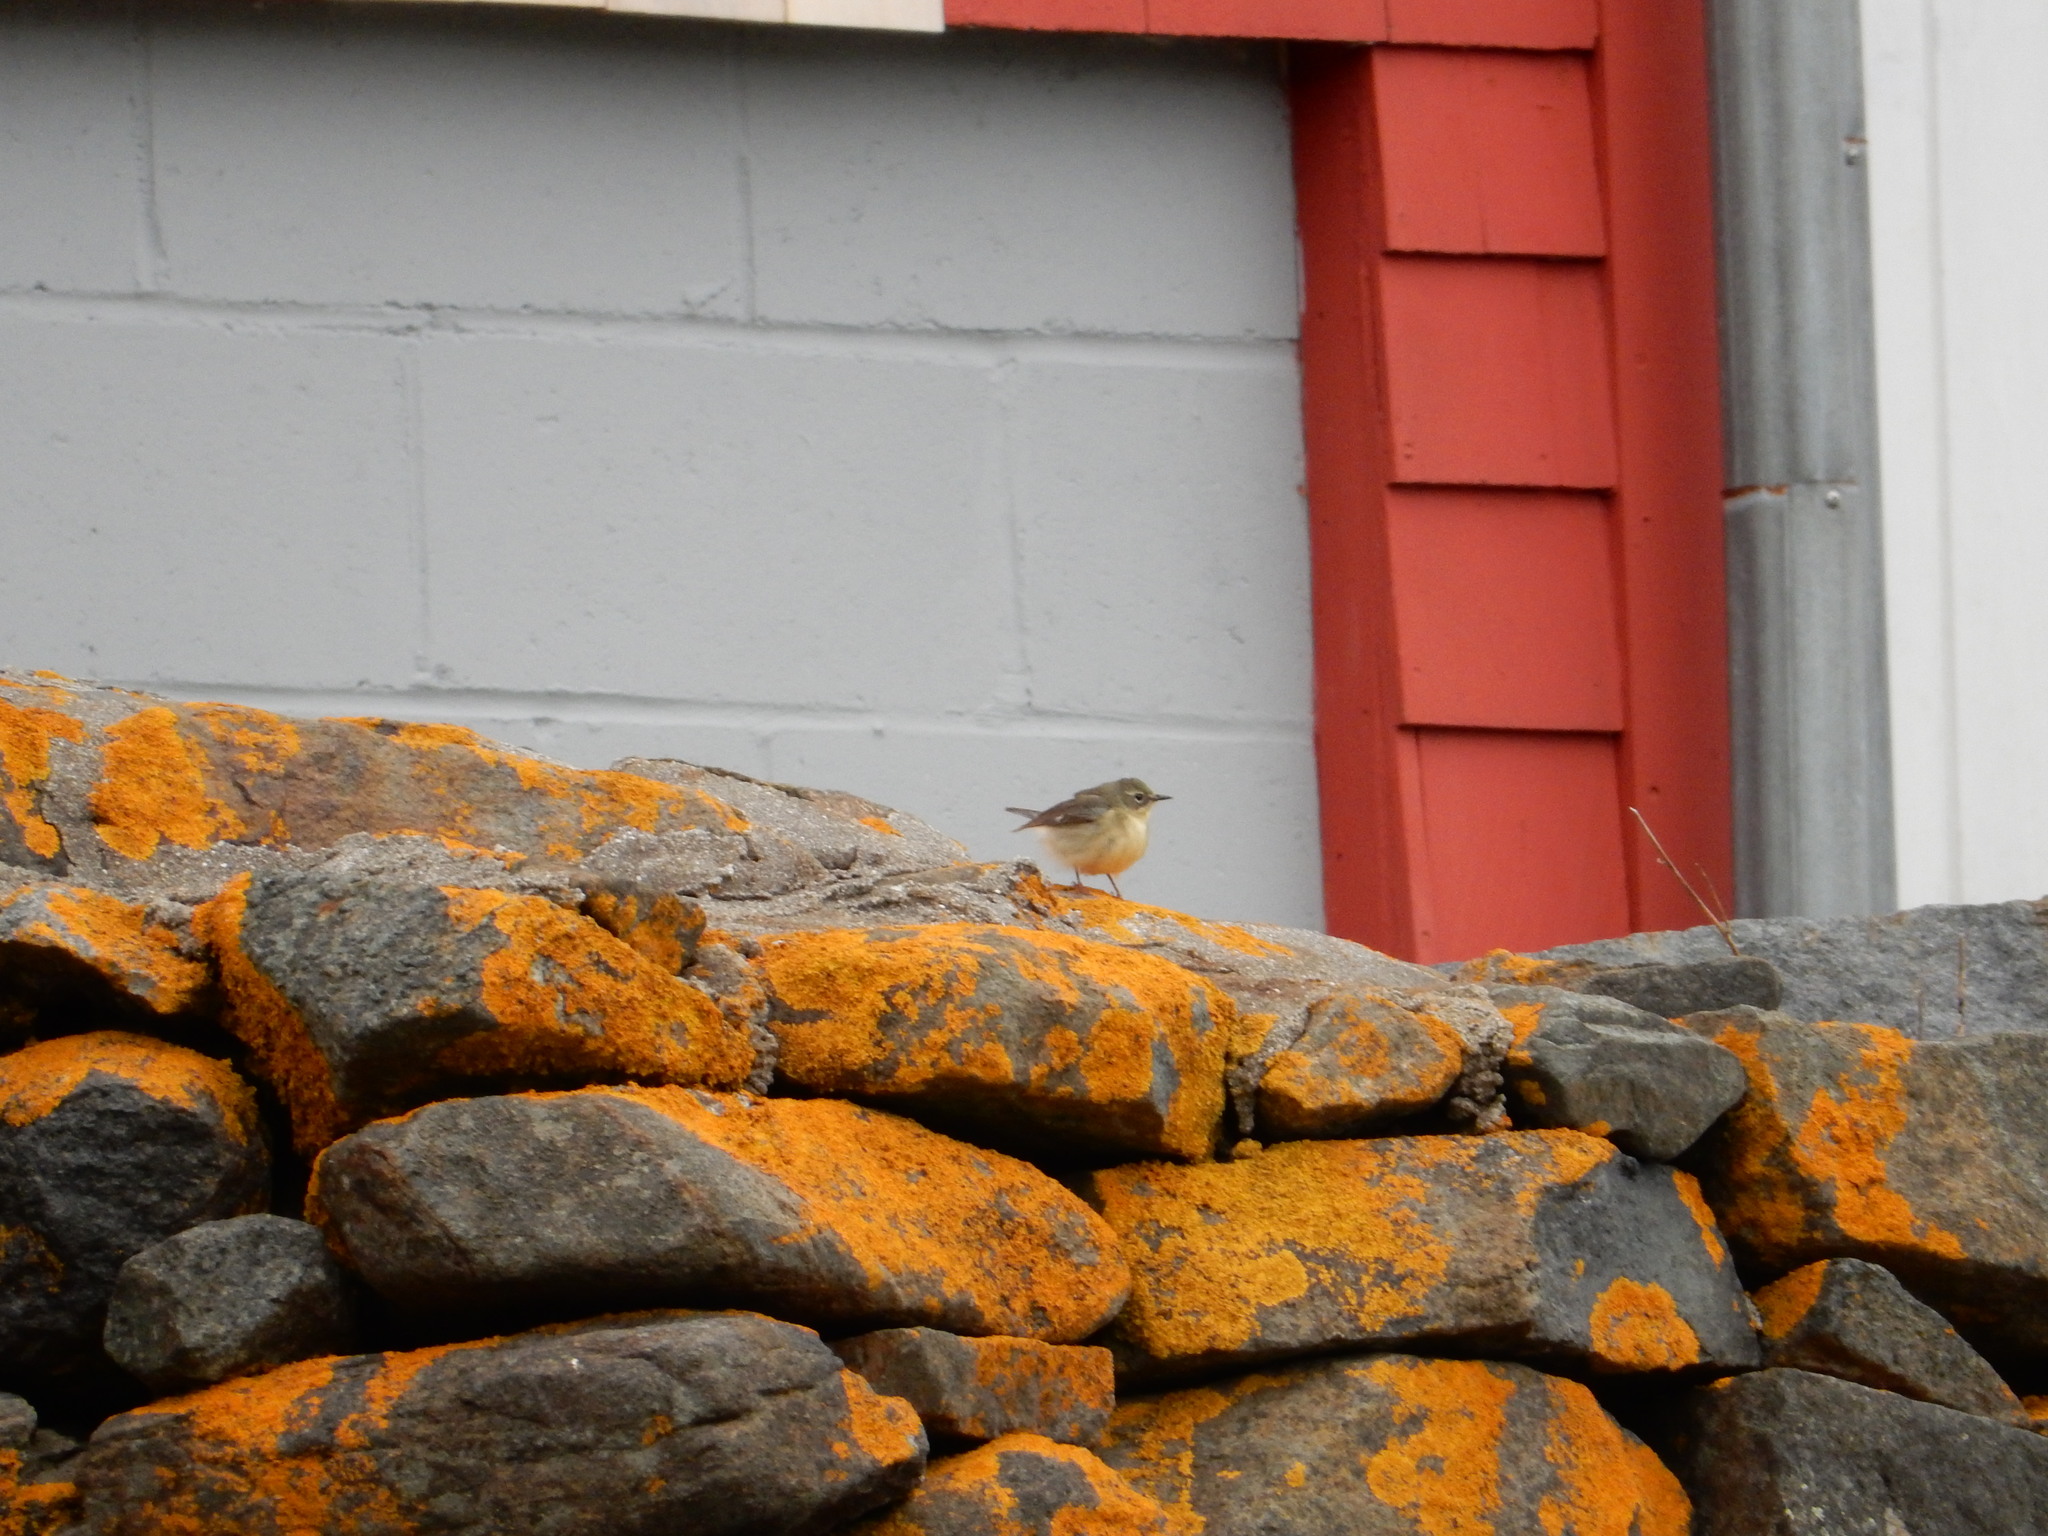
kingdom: Animalia
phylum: Chordata
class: Aves
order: Passeriformes
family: Parulidae
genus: Setophaga
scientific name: Setophaga caerulescens
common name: Black-throated blue warbler
